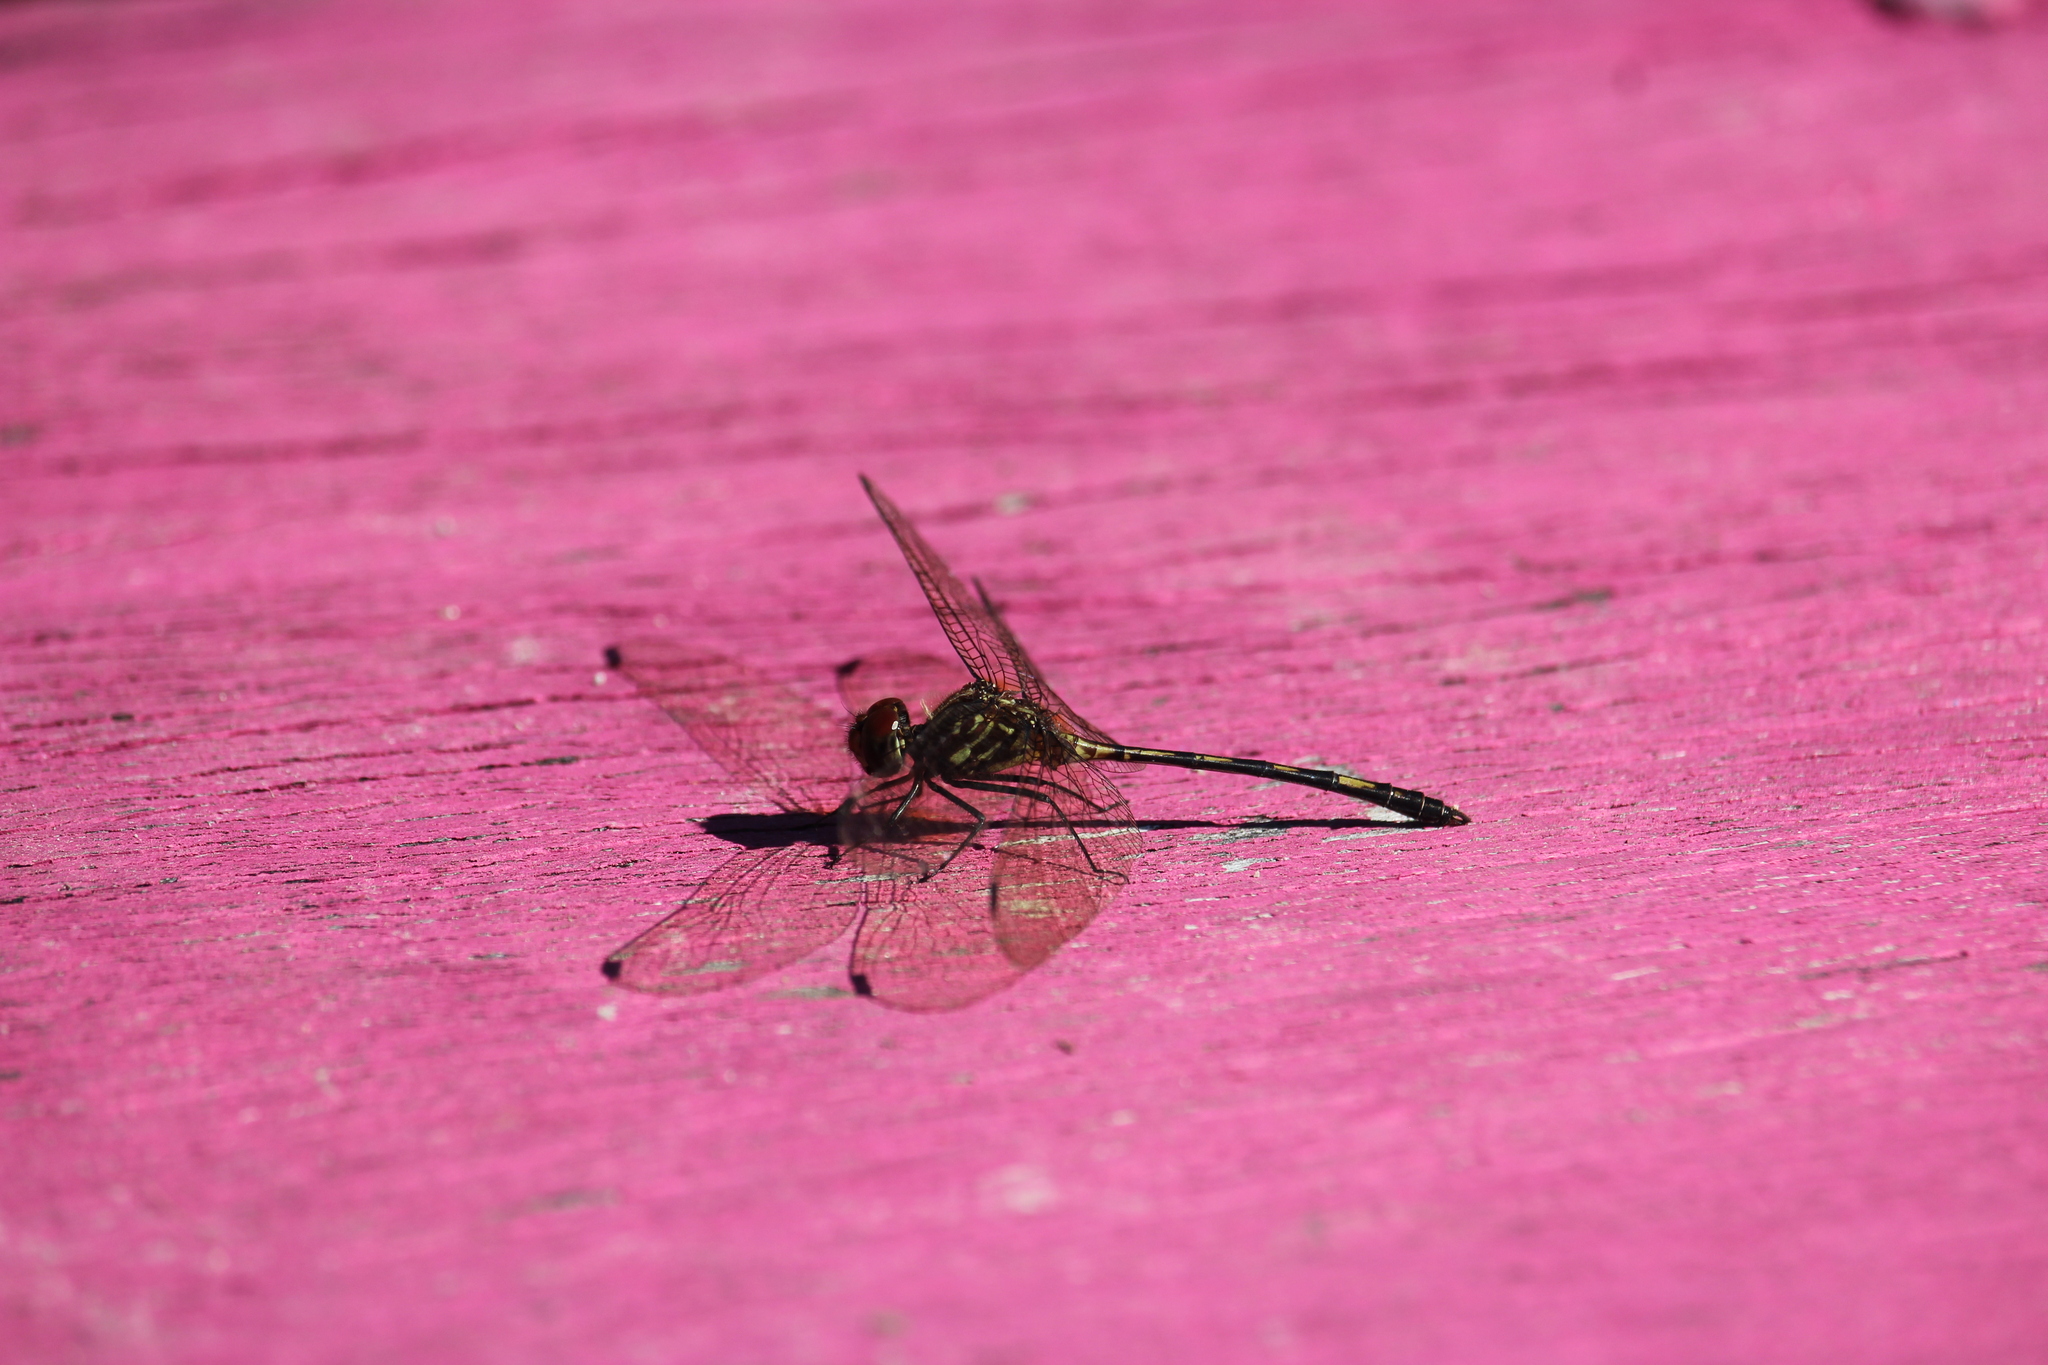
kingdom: Animalia
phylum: Arthropoda
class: Insecta
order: Odonata
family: Libellulidae
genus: Dythemis
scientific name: Dythemis sterilis
